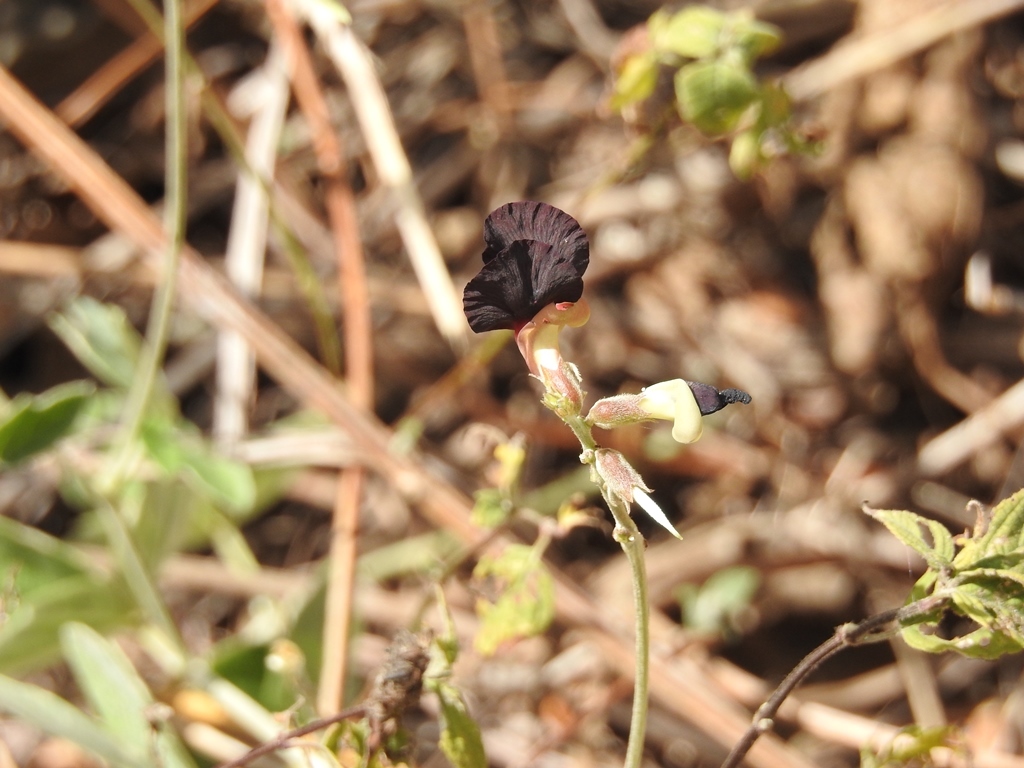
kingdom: Plantae
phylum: Tracheophyta
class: Magnoliopsida
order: Fabales
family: Fabaceae
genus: Macroptilium
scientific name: Macroptilium atropurpureum
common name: Purple bushbean
